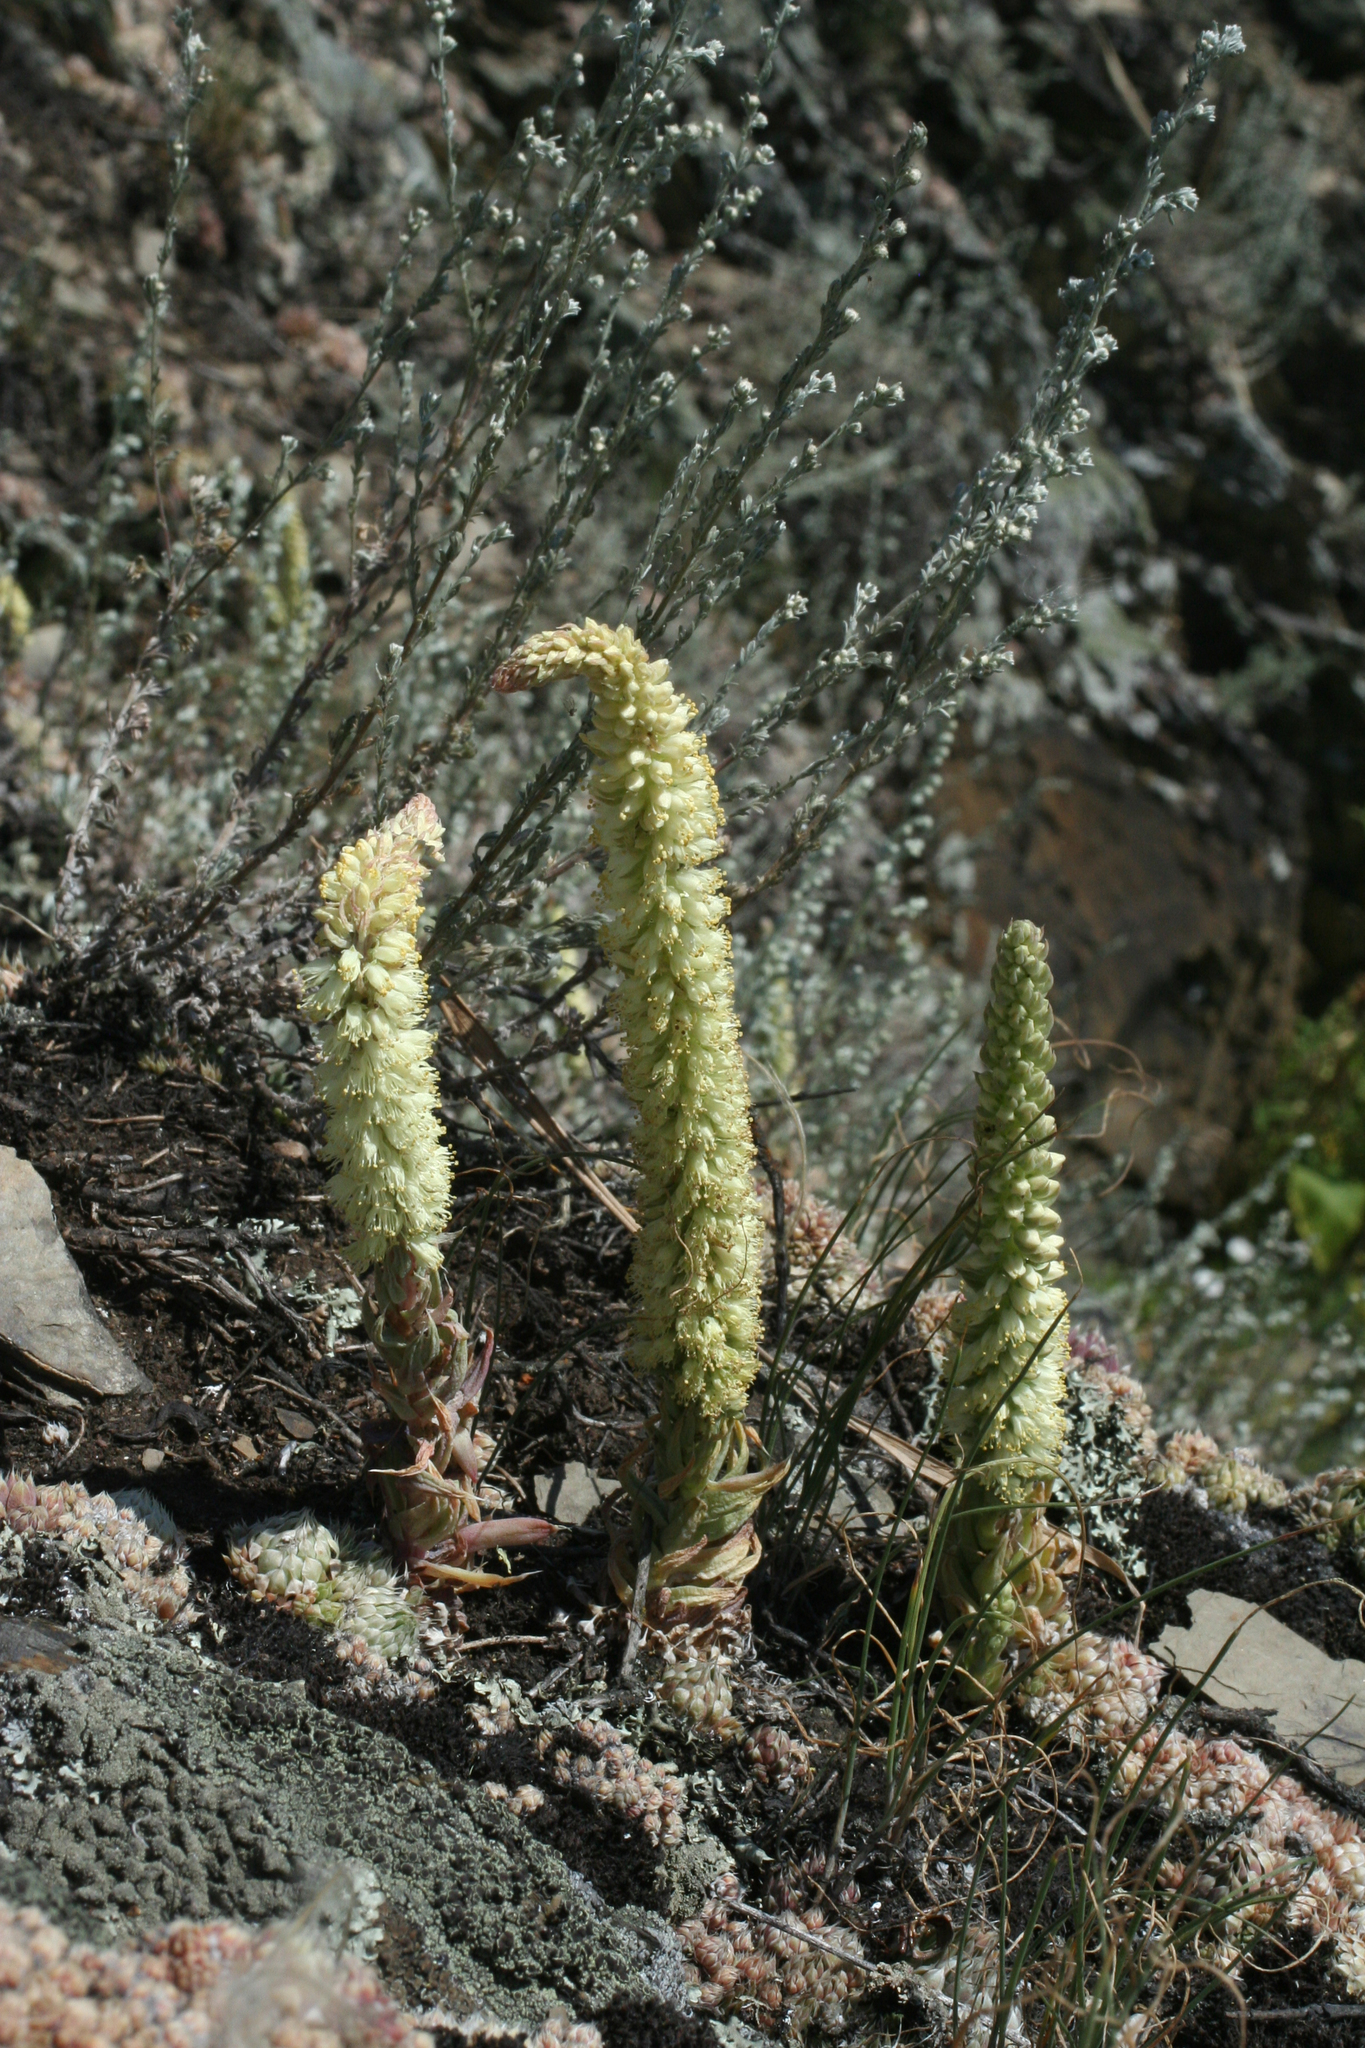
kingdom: Plantae
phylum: Tracheophyta
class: Magnoliopsida
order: Saxifragales
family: Crassulaceae
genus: Orostachys
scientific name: Orostachys spinosa
